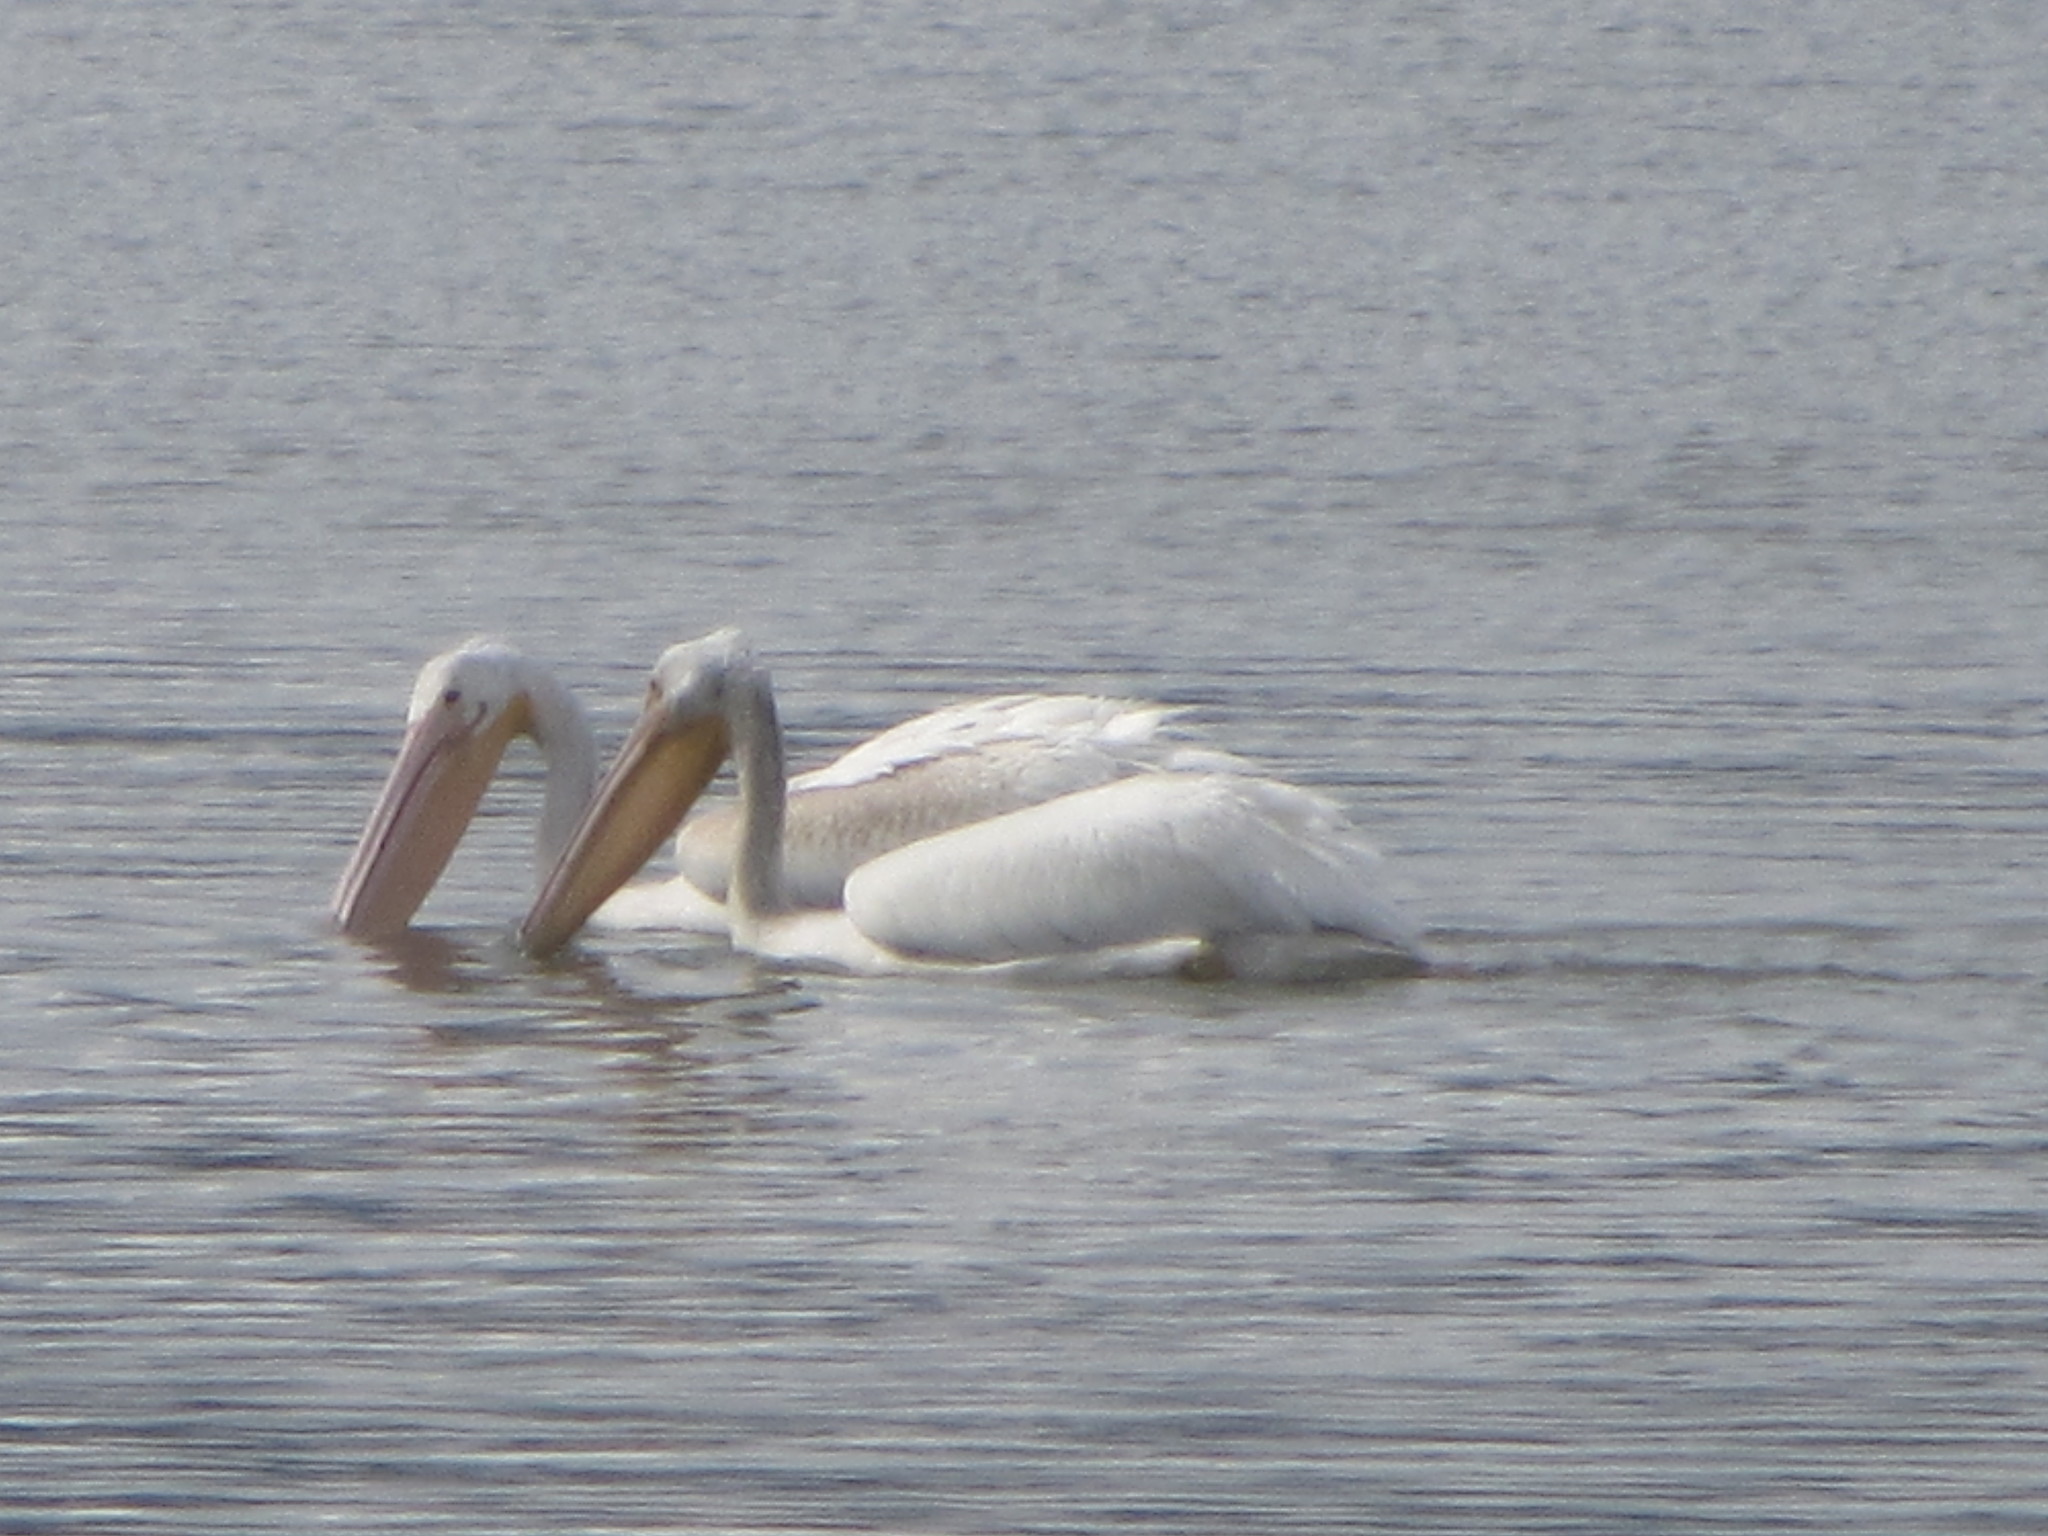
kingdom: Animalia
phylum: Chordata
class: Aves
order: Pelecaniformes
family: Pelecanidae
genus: Pelecanus
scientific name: Pelecanus erythrorhynchos
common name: American white pelican
